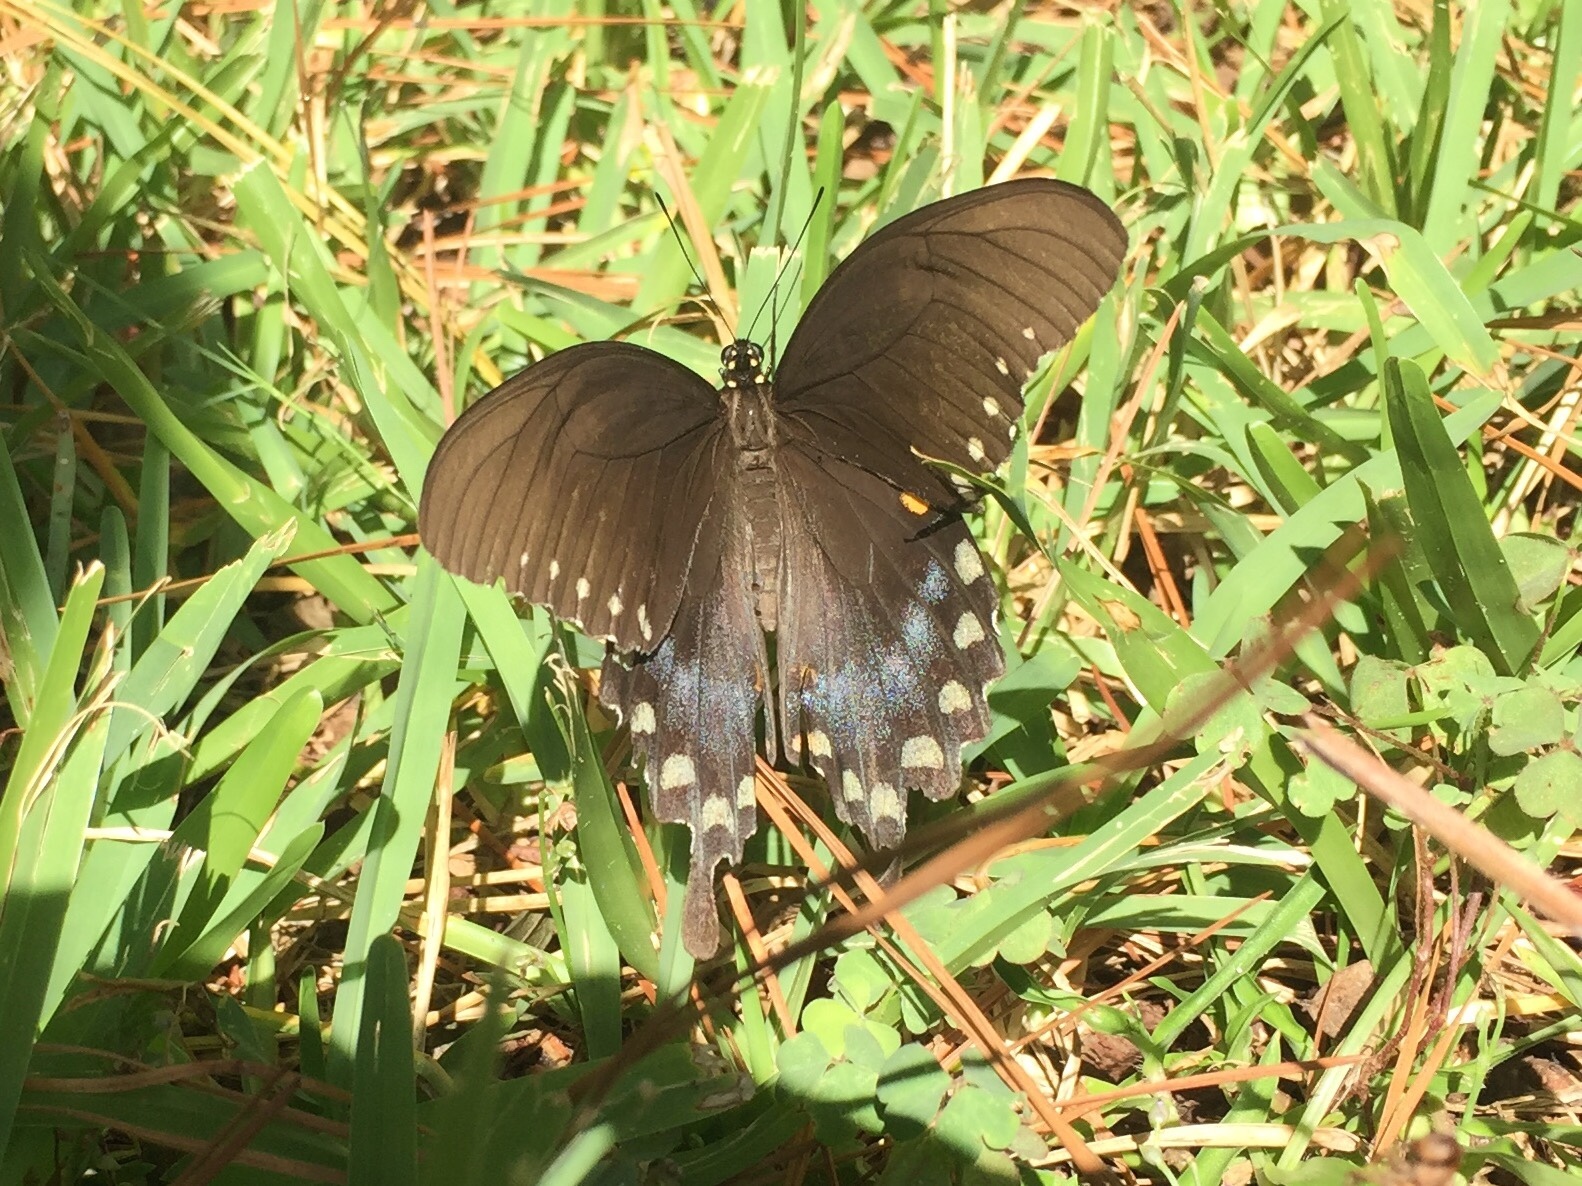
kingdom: Animalia
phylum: Arthropoda
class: Insecta
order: Lepidoptera
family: Papilionidae
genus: Papilio
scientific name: Papilio troilus
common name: Spicebush swallowtail
